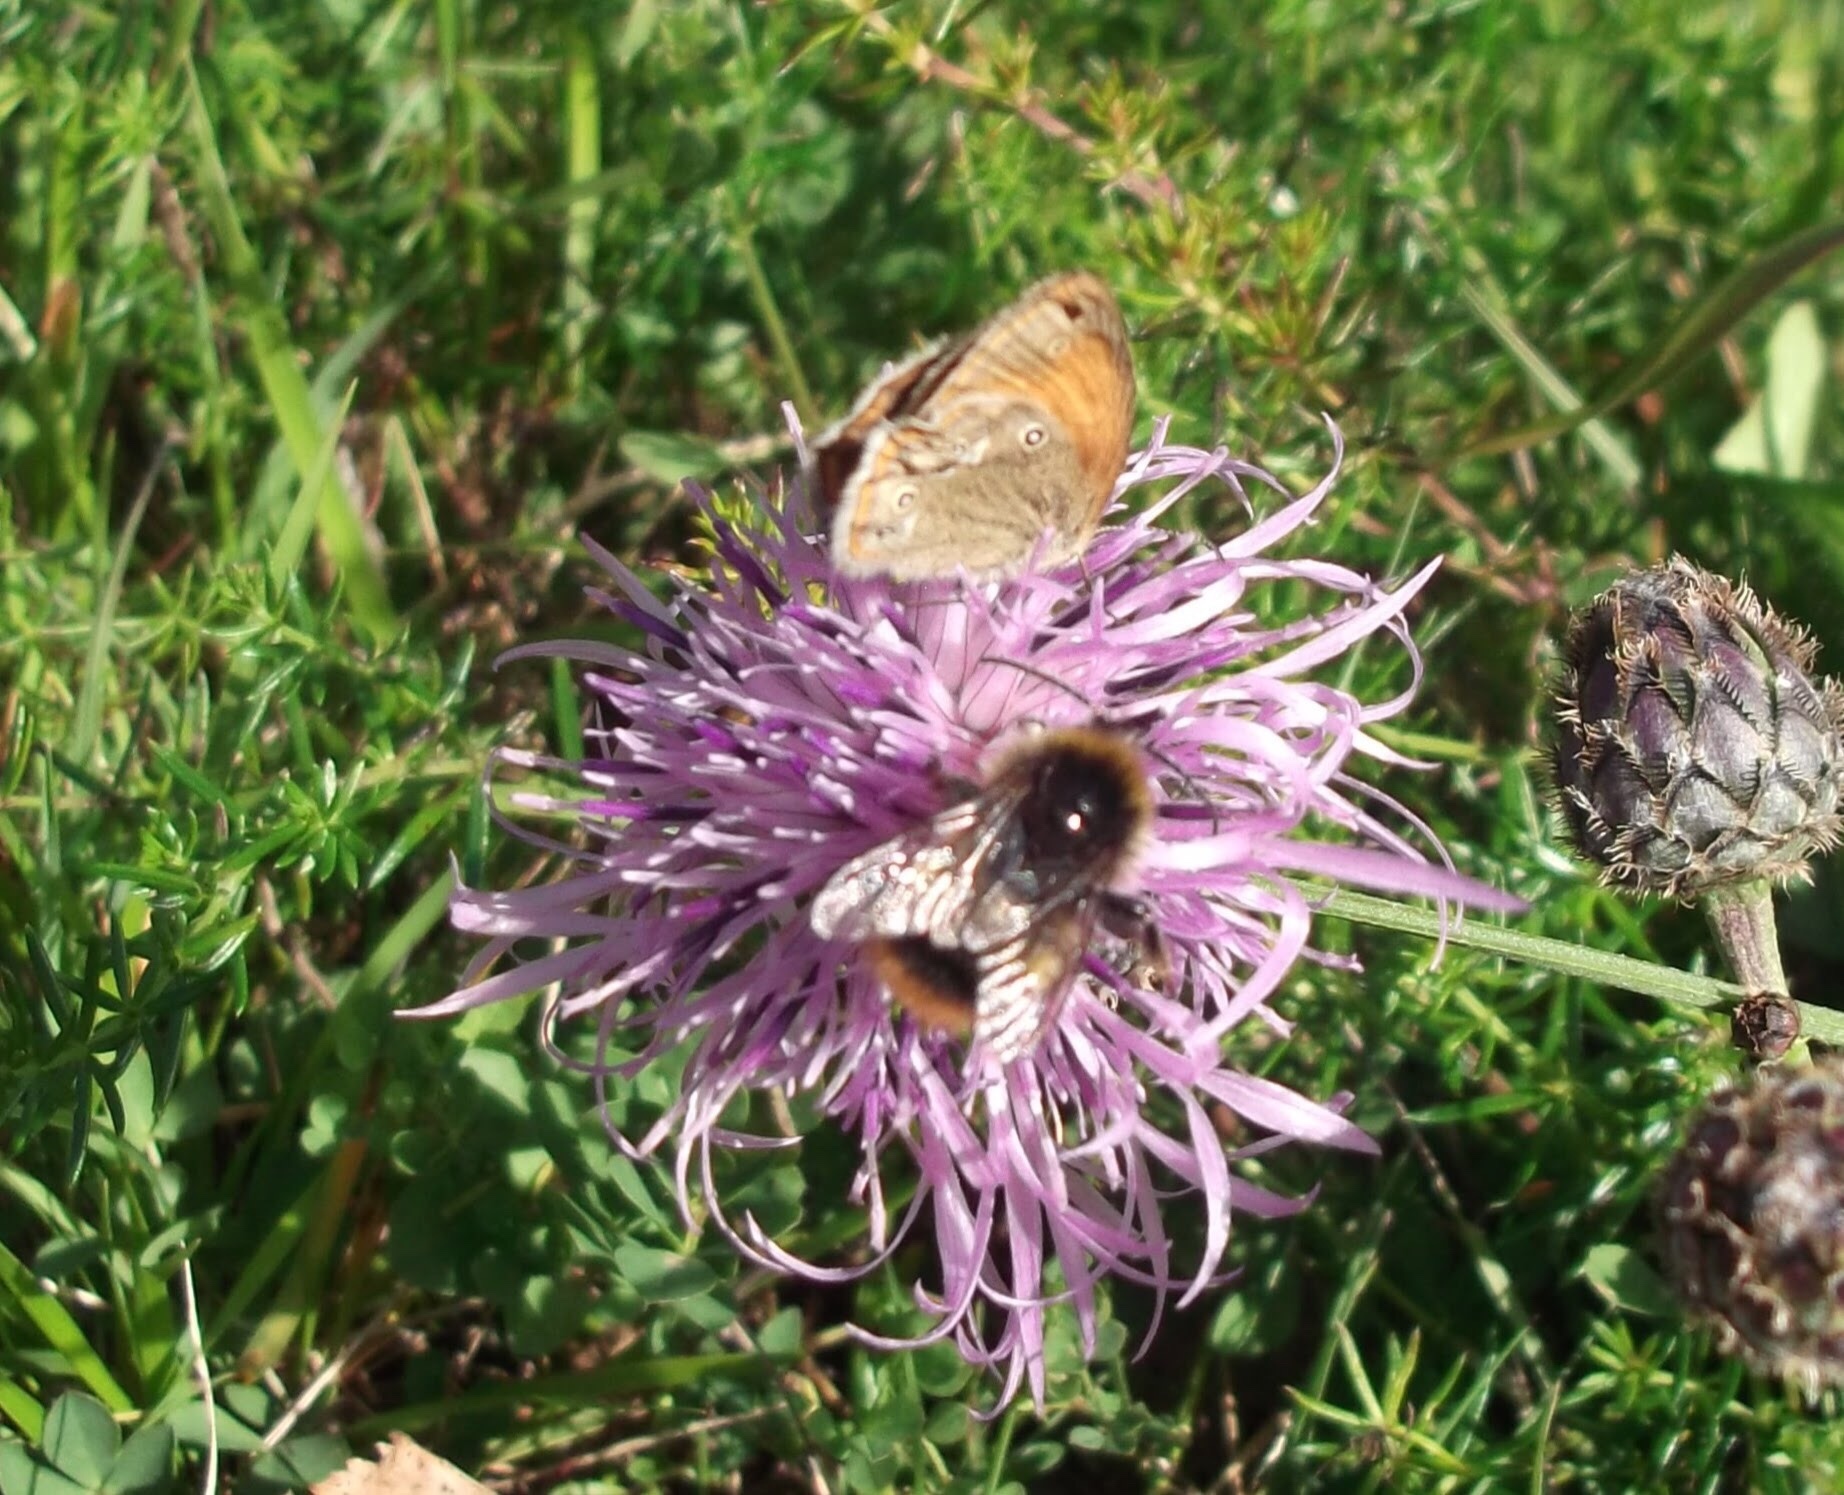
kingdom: Animalia
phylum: Arthropoda
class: Insecta
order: Lepidoptera
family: Nymphalidae
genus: Coenonympha
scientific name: Coenonympha iphis
